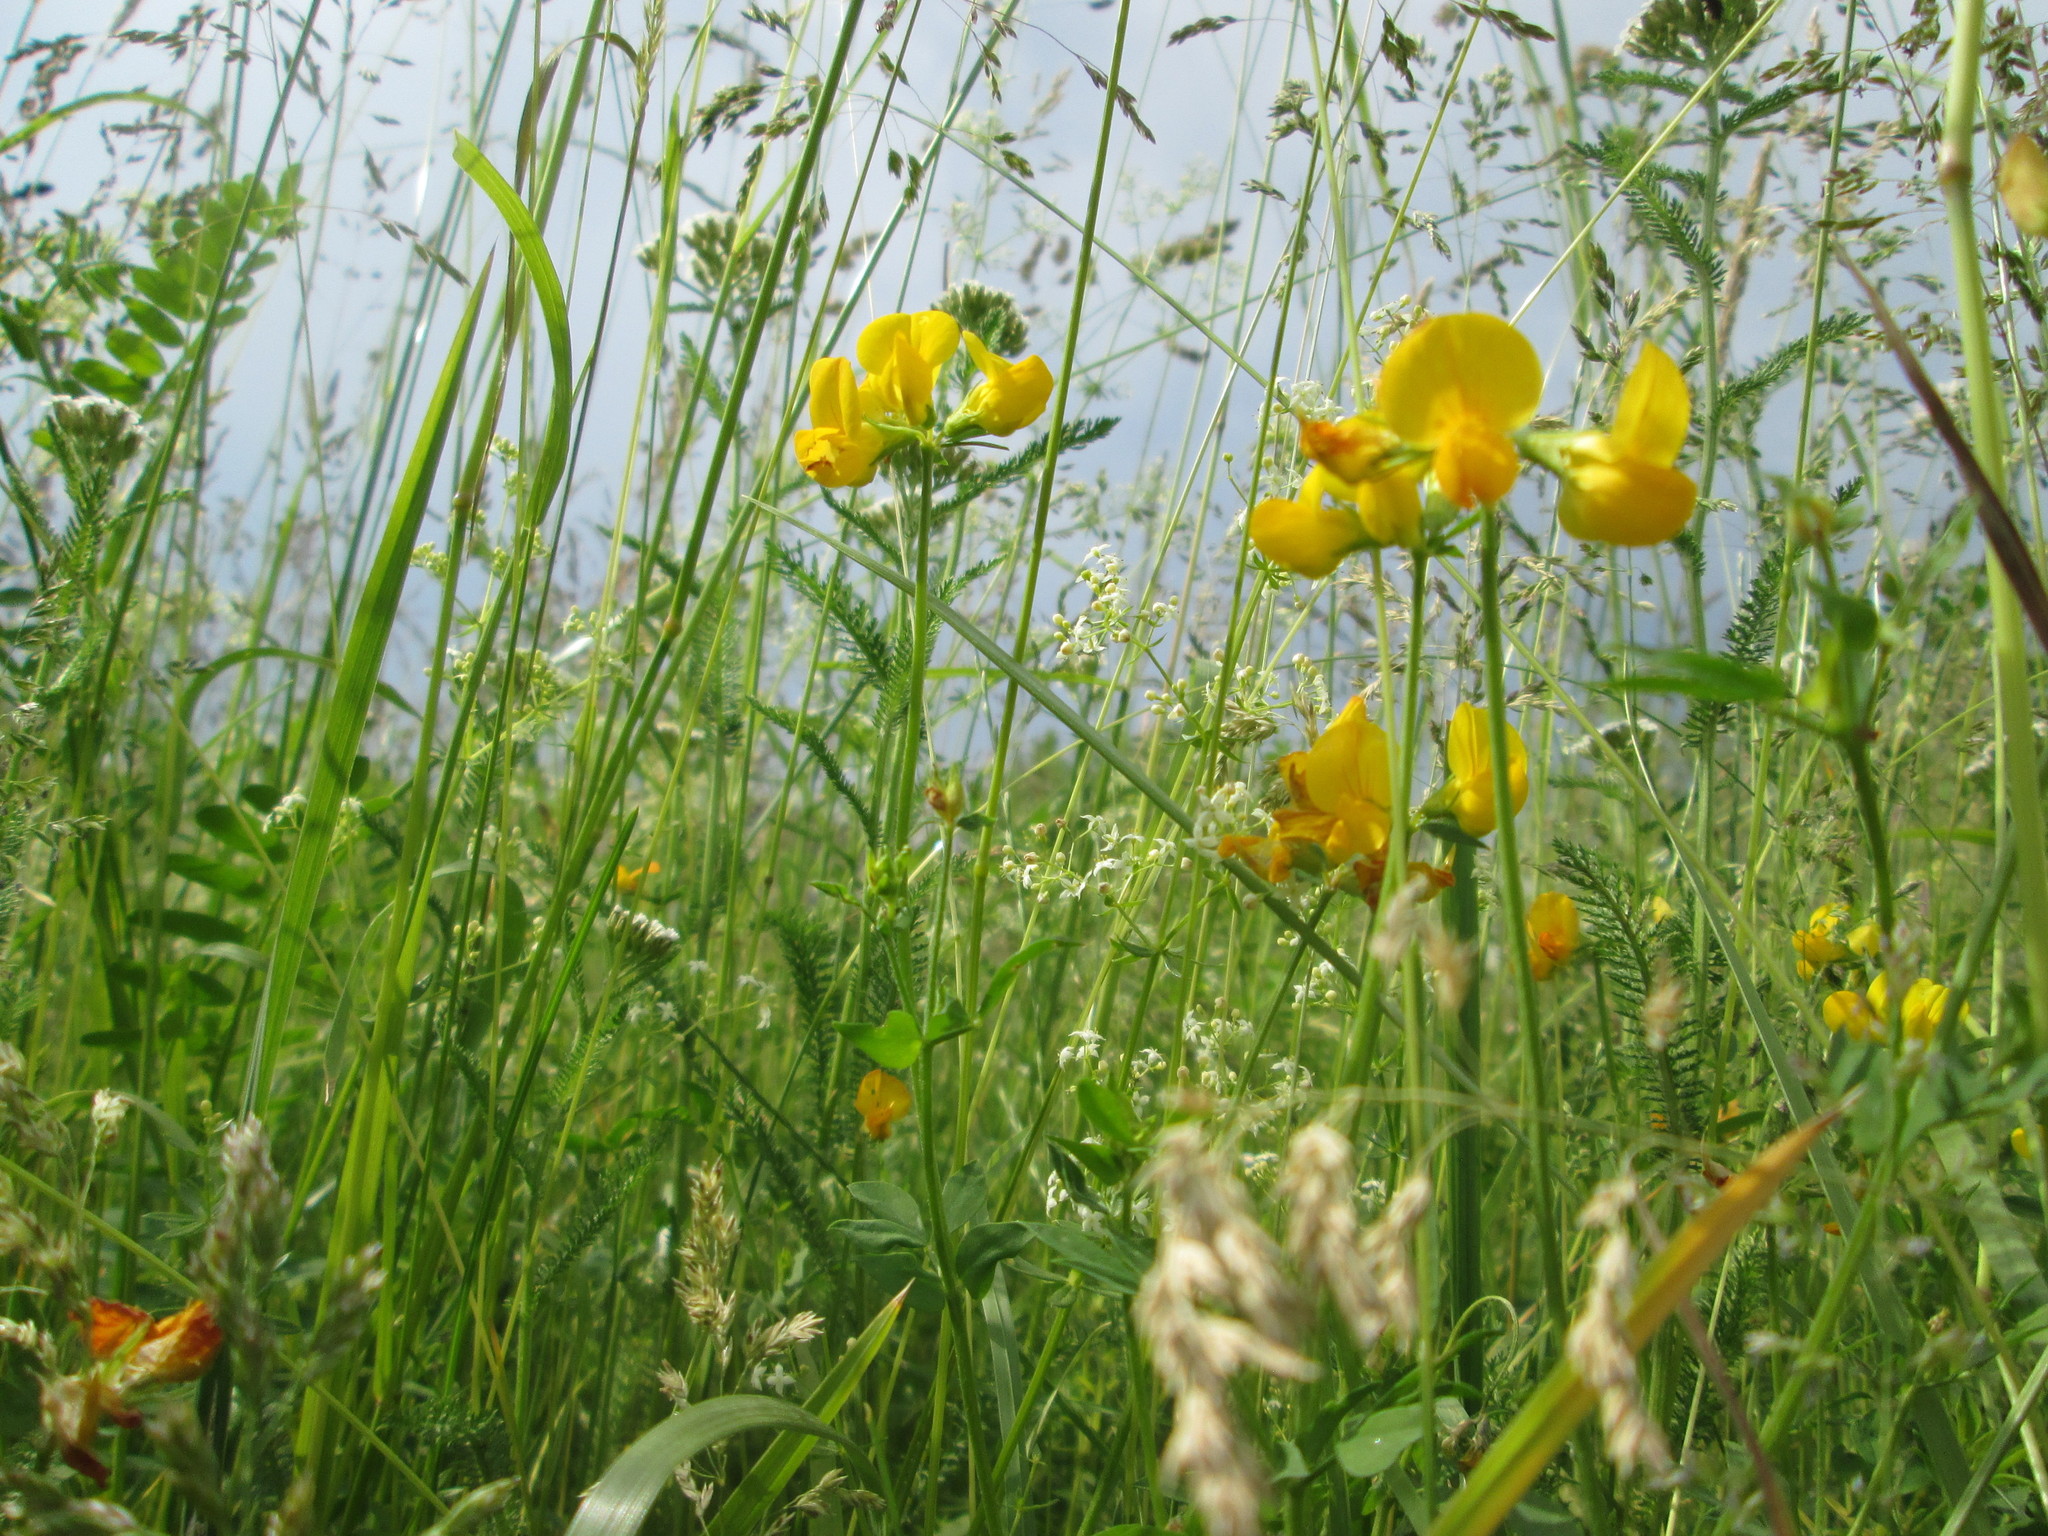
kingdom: Plantae
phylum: Tracheophyta
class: Magnoliopsida
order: Fabales
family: Fabaceae
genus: Lathyrus
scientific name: Lathyrus pratensis
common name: Meadow vetchling
